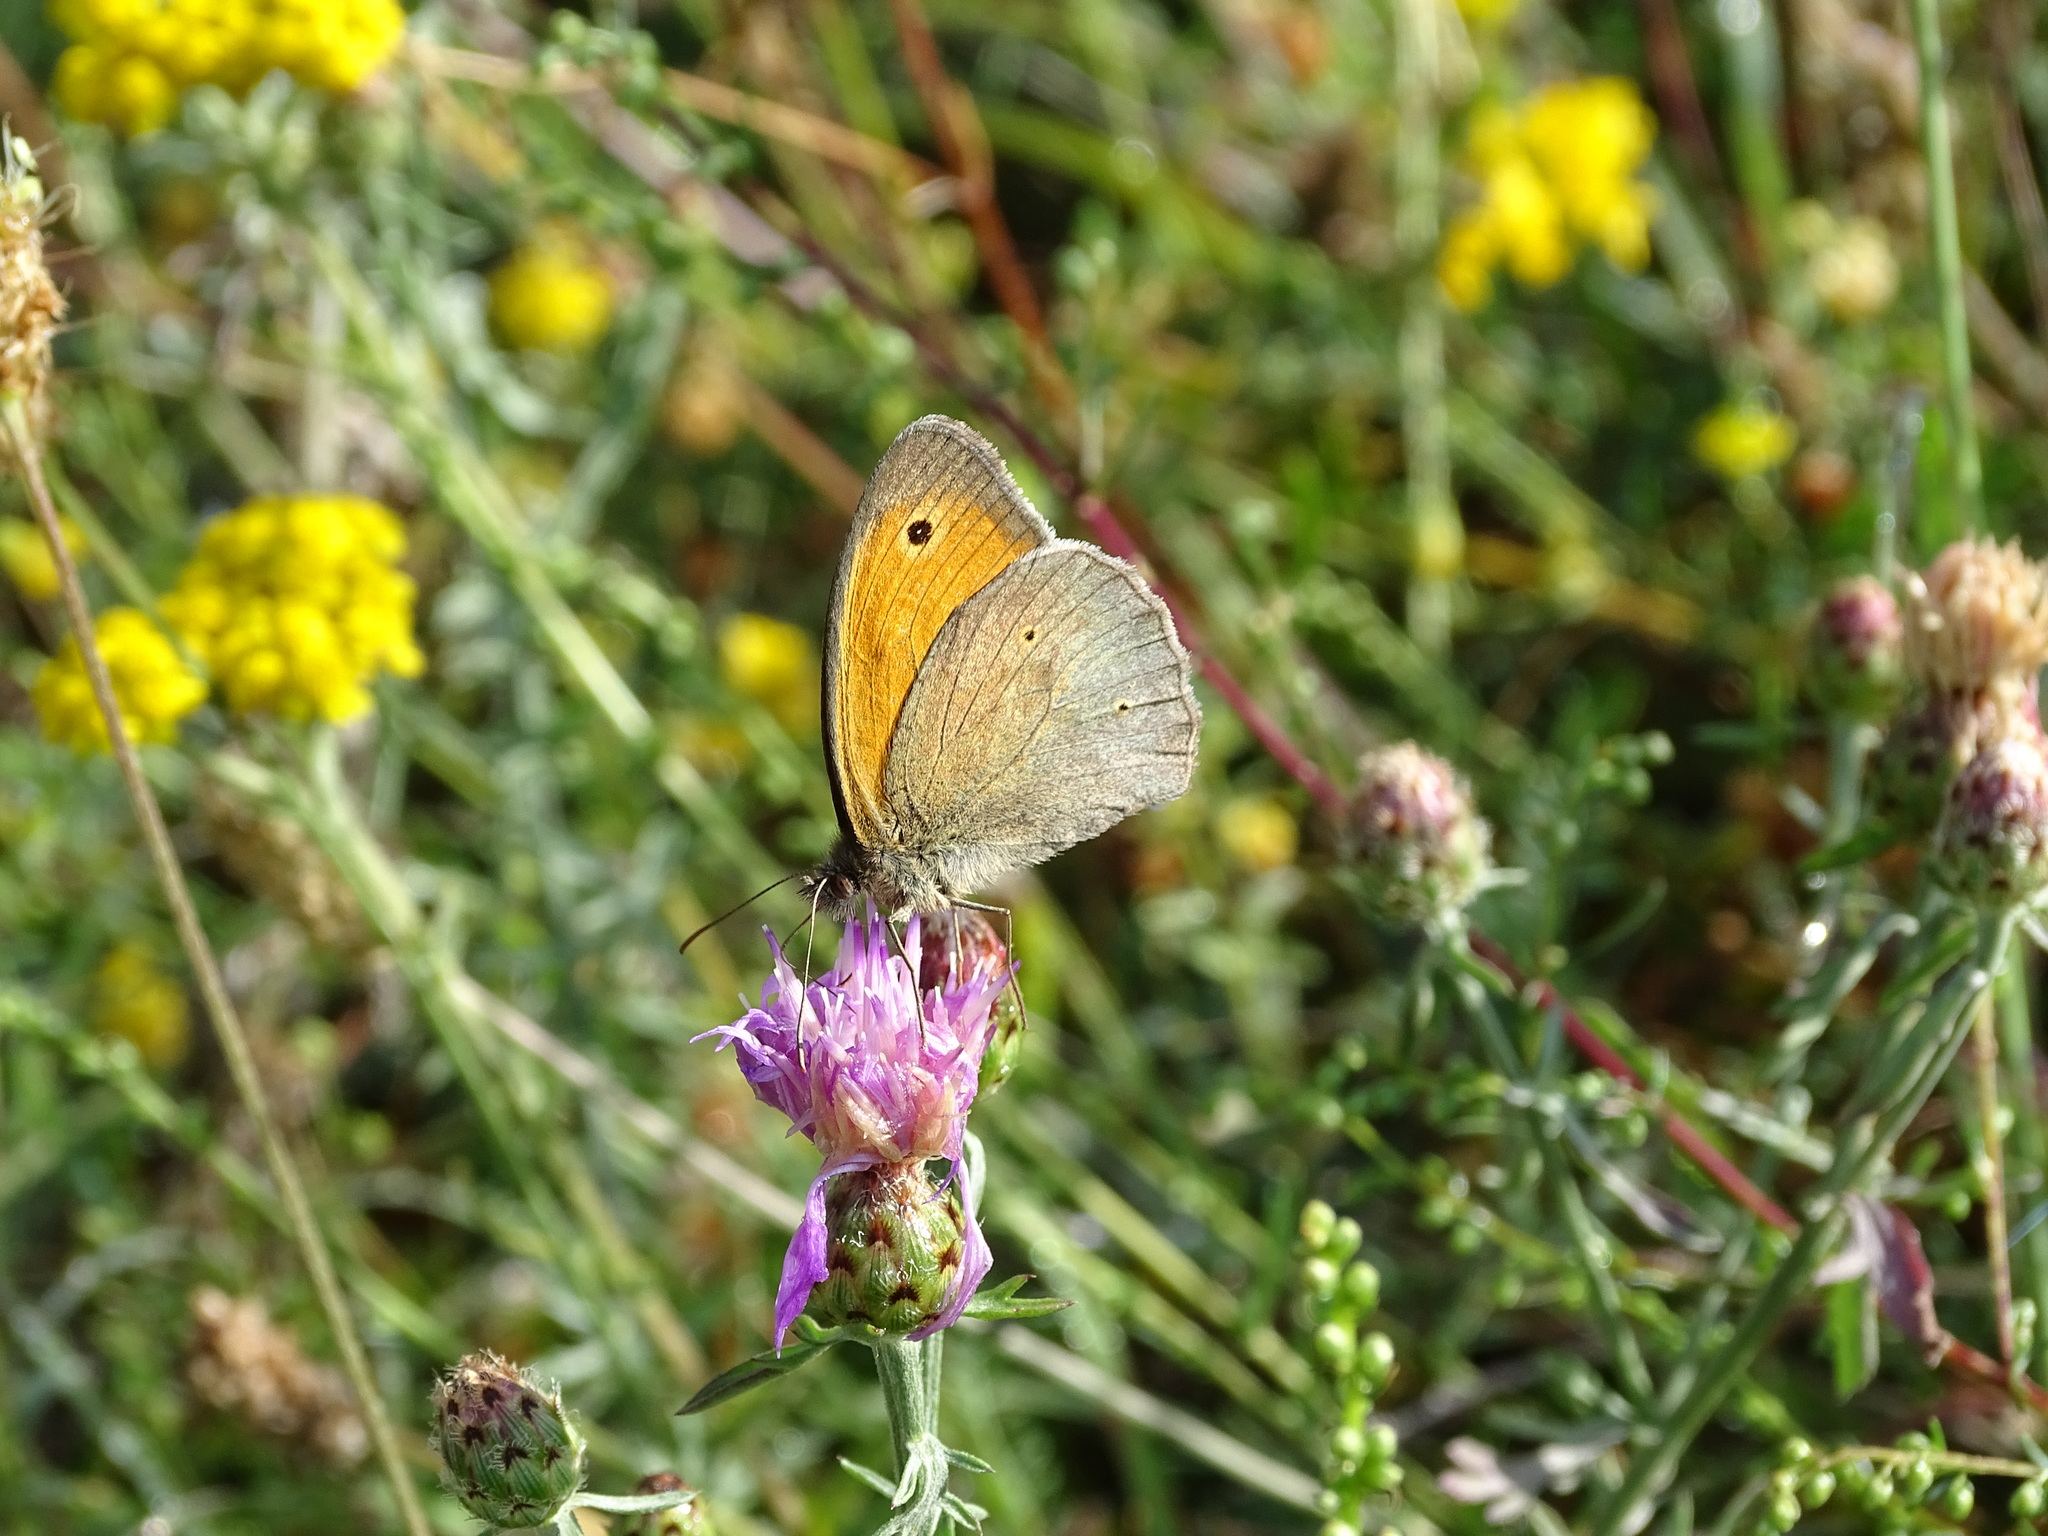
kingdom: Animalia
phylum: Arthropoda
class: Insecta
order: Lepidoptera
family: Nymphalidae
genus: Maniola
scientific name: Maniola jurtina
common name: Meadow brown
